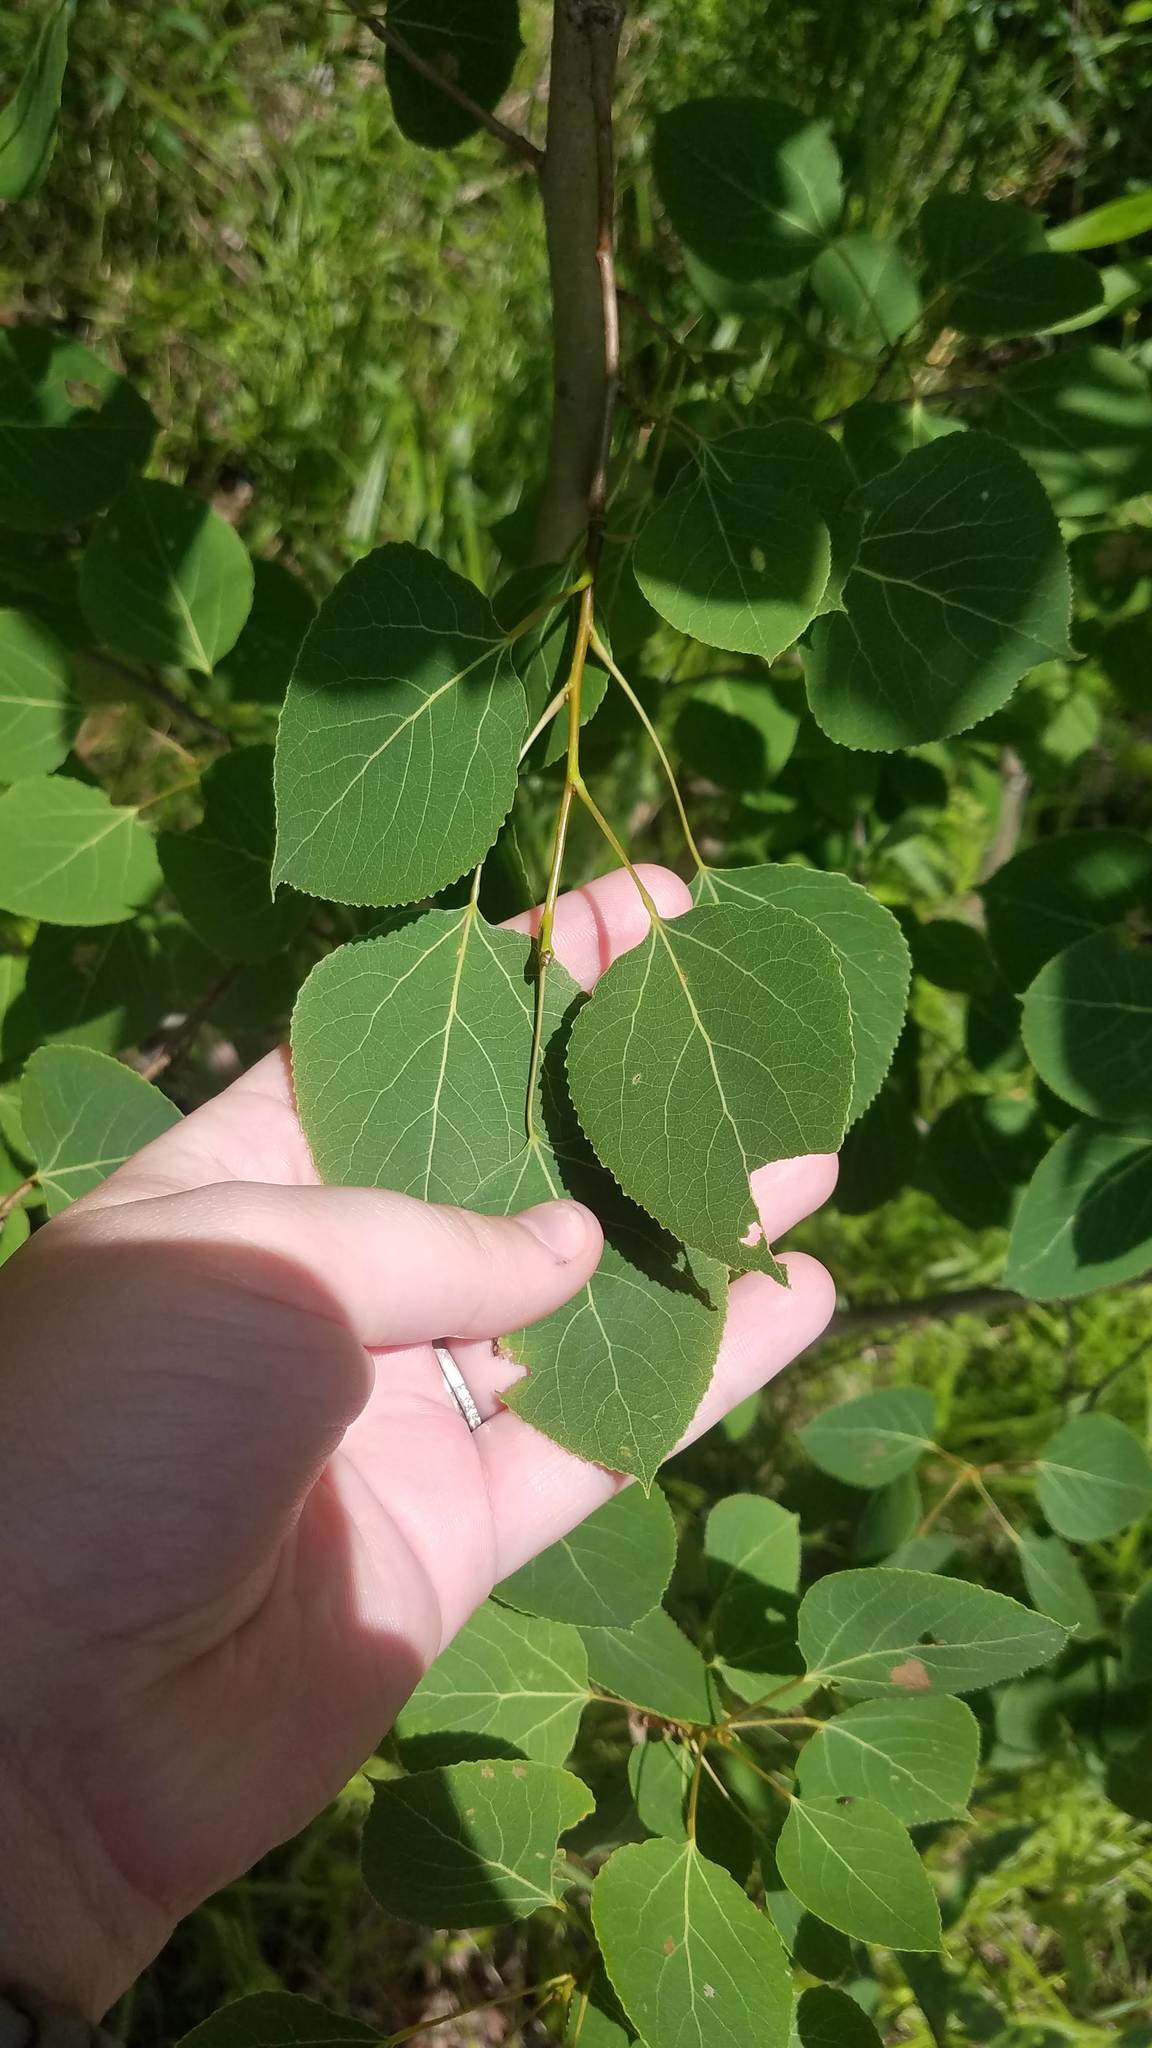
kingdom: Plantae
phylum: Tracheophyta
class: Magnoliopsida
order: Malpighiales
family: Salicaceae
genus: Populus
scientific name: Populus tremuloides
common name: Quaking aspen
